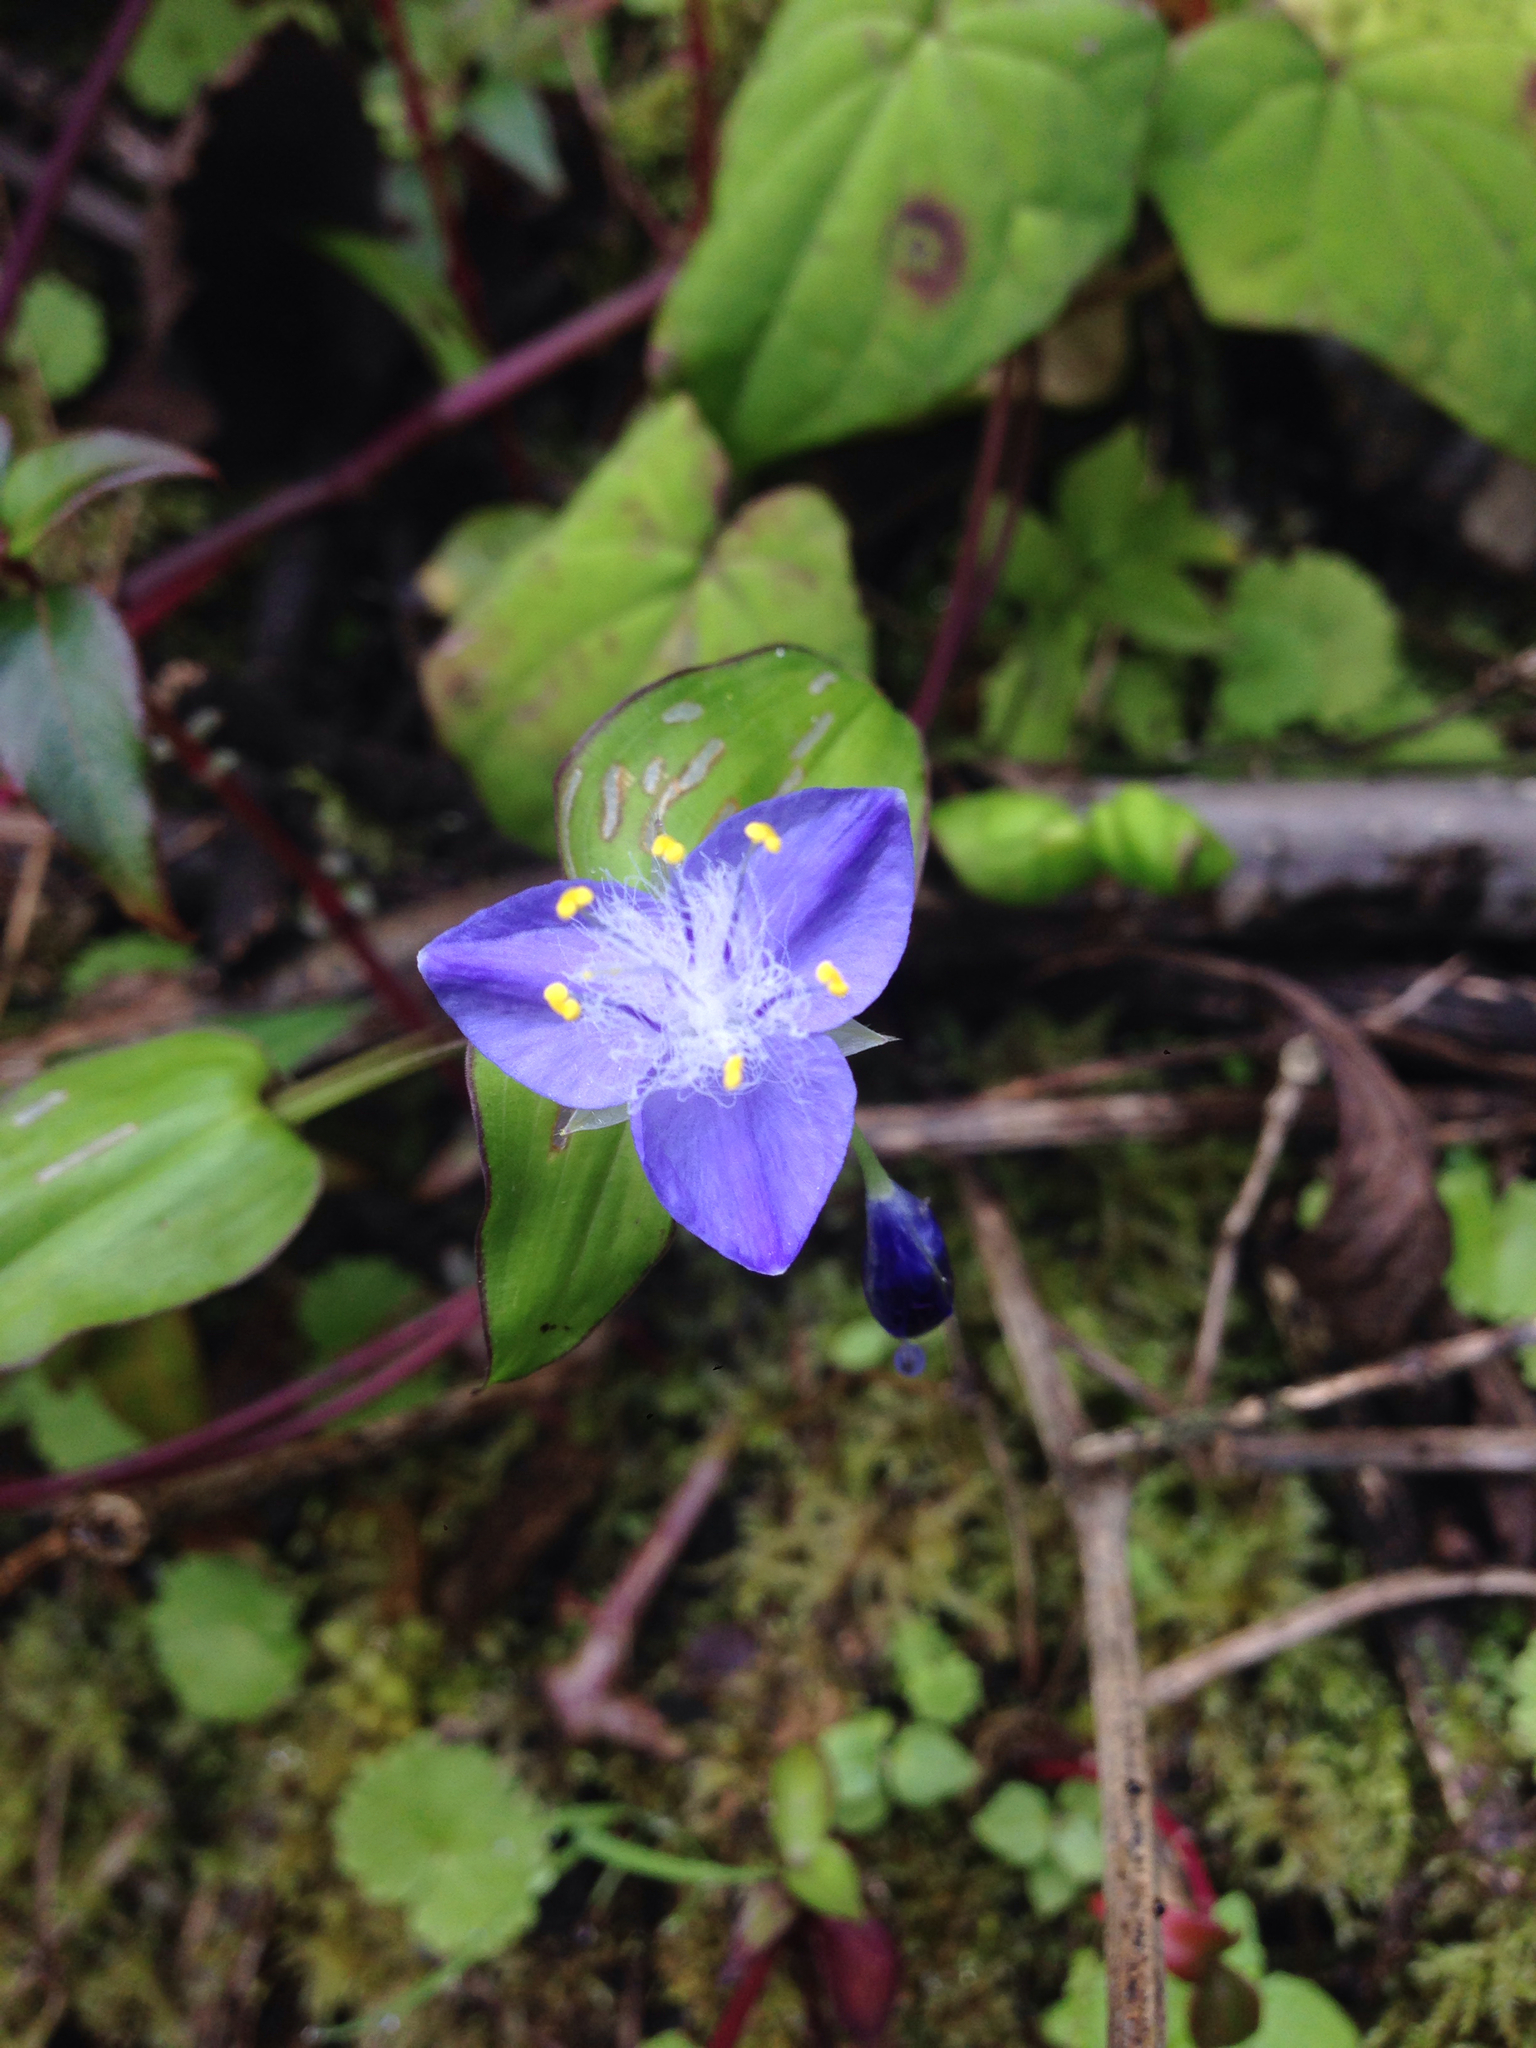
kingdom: Plantae
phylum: Tracheophyta
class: Liliopsida
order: Commelinales
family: Commelinaceae
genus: Elasis
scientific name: Elasis guatemalensis
